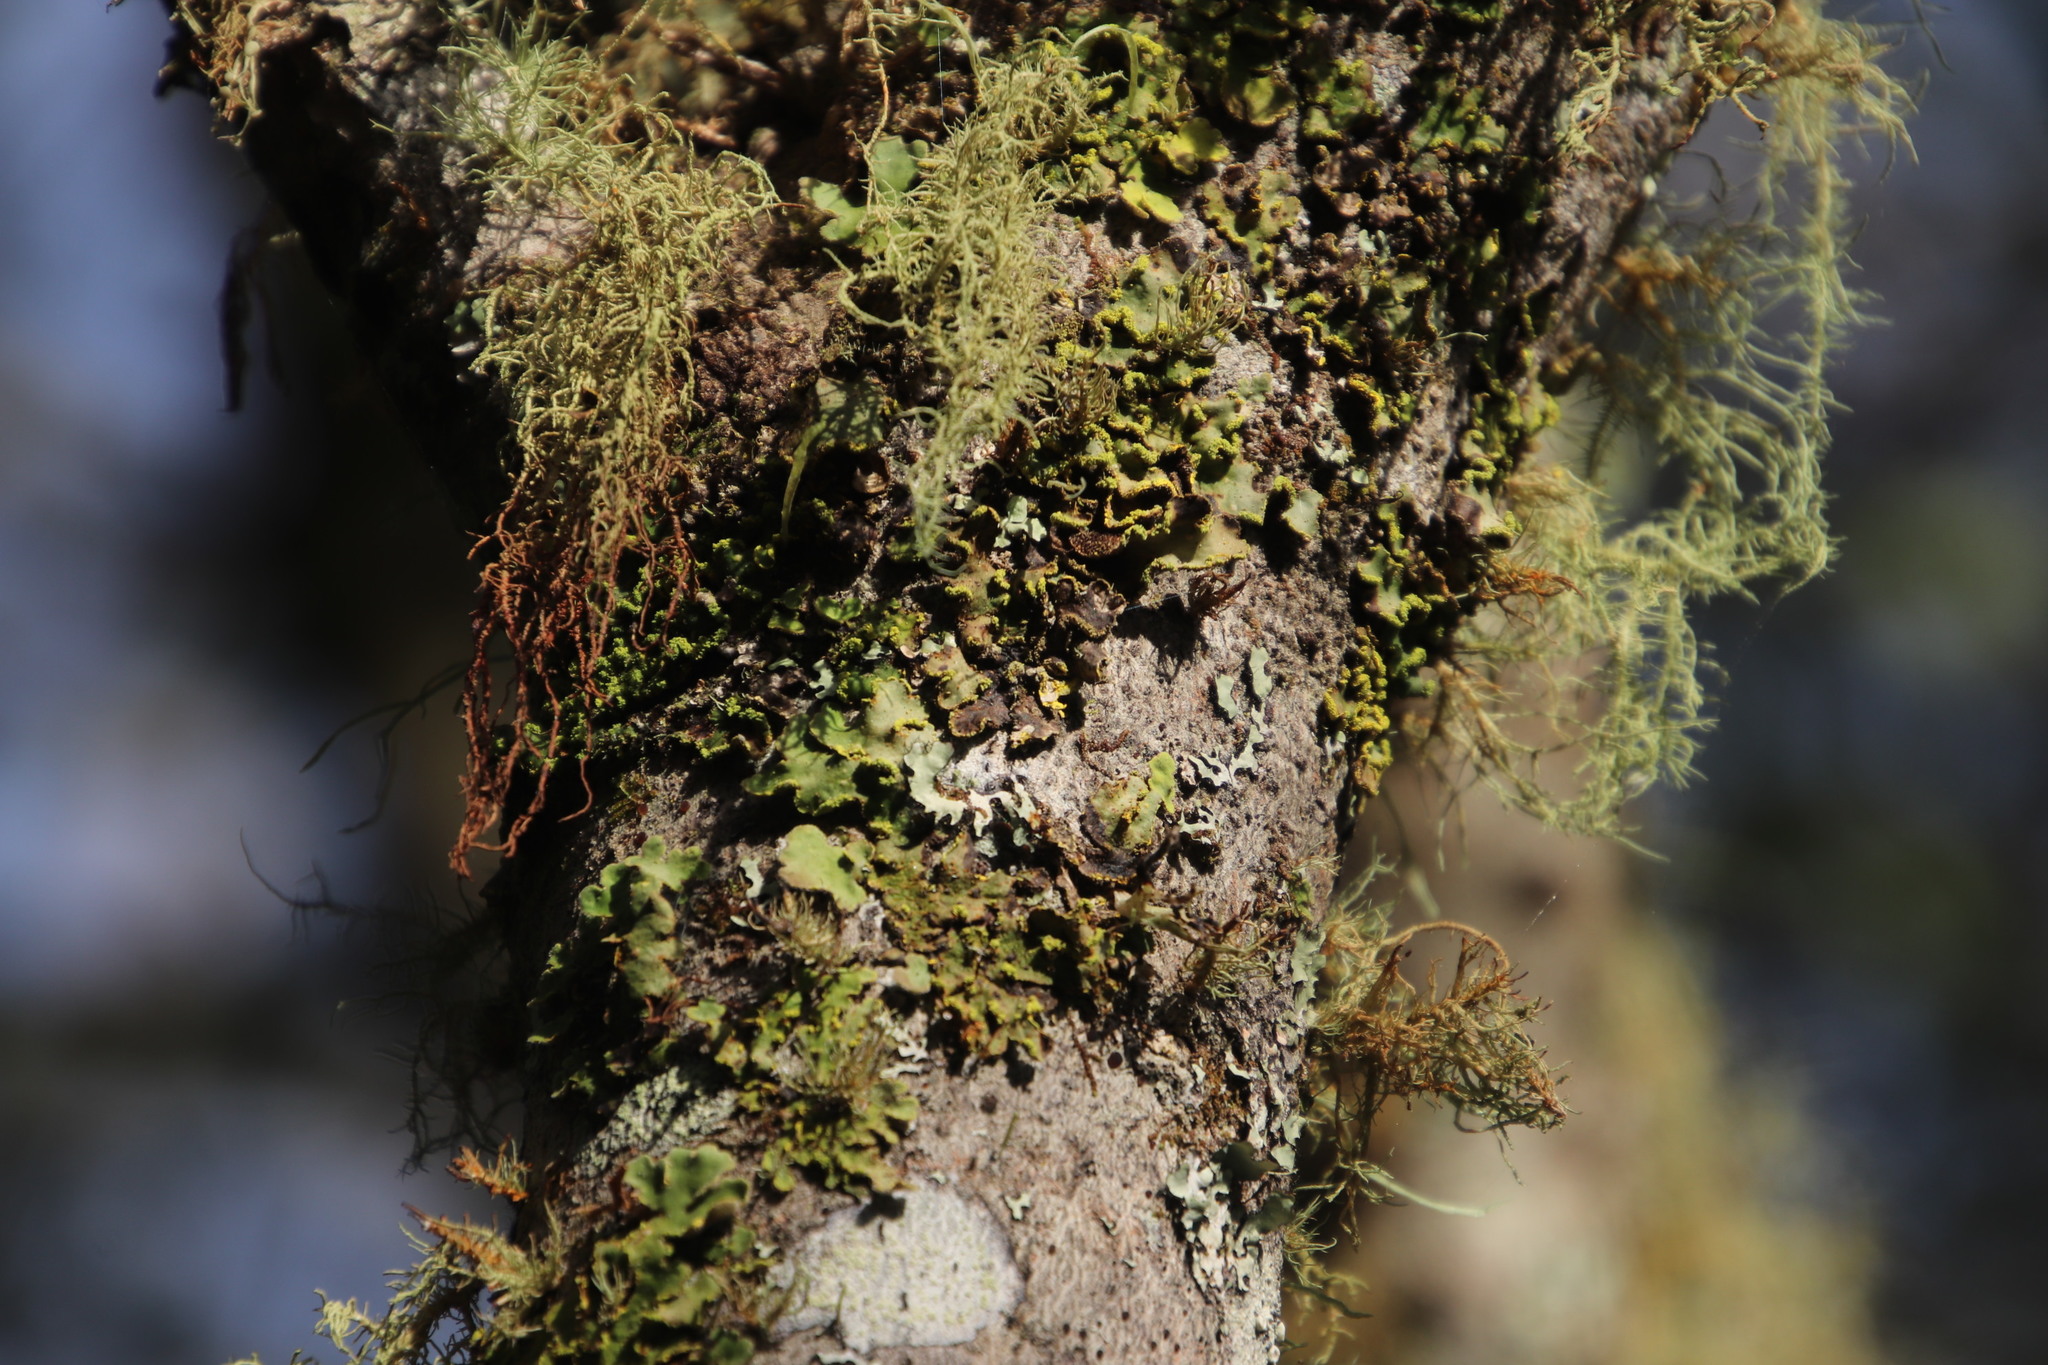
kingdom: Fungi
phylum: Ascomycota
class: Lecanoromycetes
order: Peltigerales
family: Lobariaceae
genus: Pseudocyphellaria
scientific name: Pseudocyphellaria aurata
